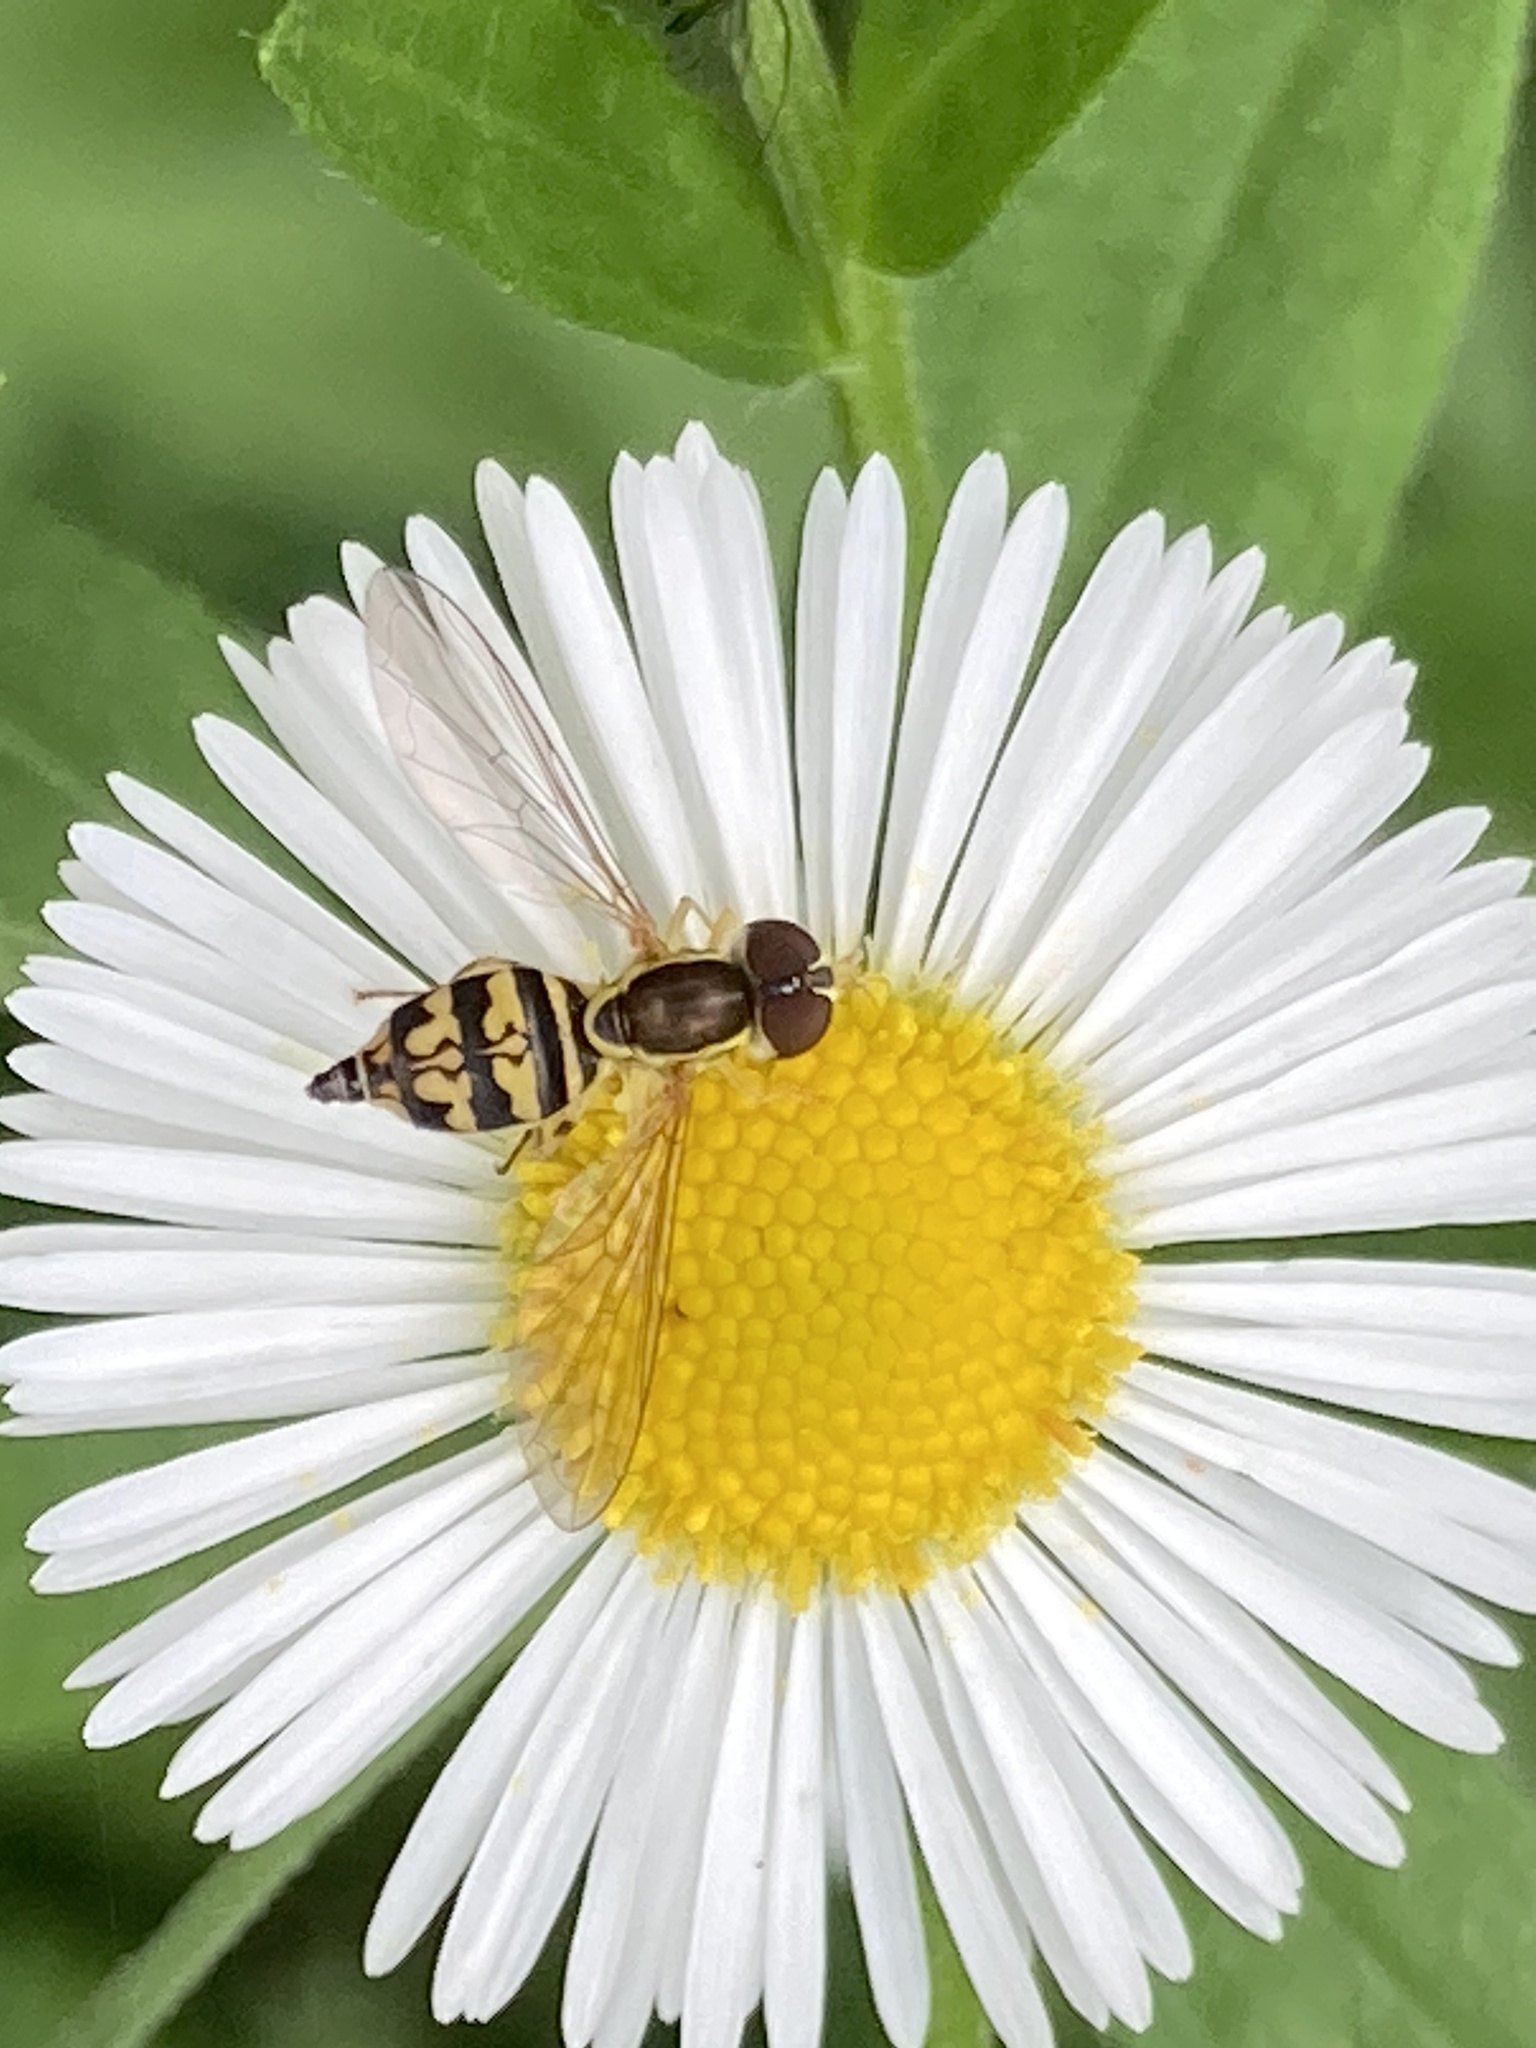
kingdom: Animalia
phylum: Arthropoda
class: Insecta
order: Diptera
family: Syrphidae
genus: Toxomerus
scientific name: Toxomerus geminatus
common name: Eastern calligrapher
